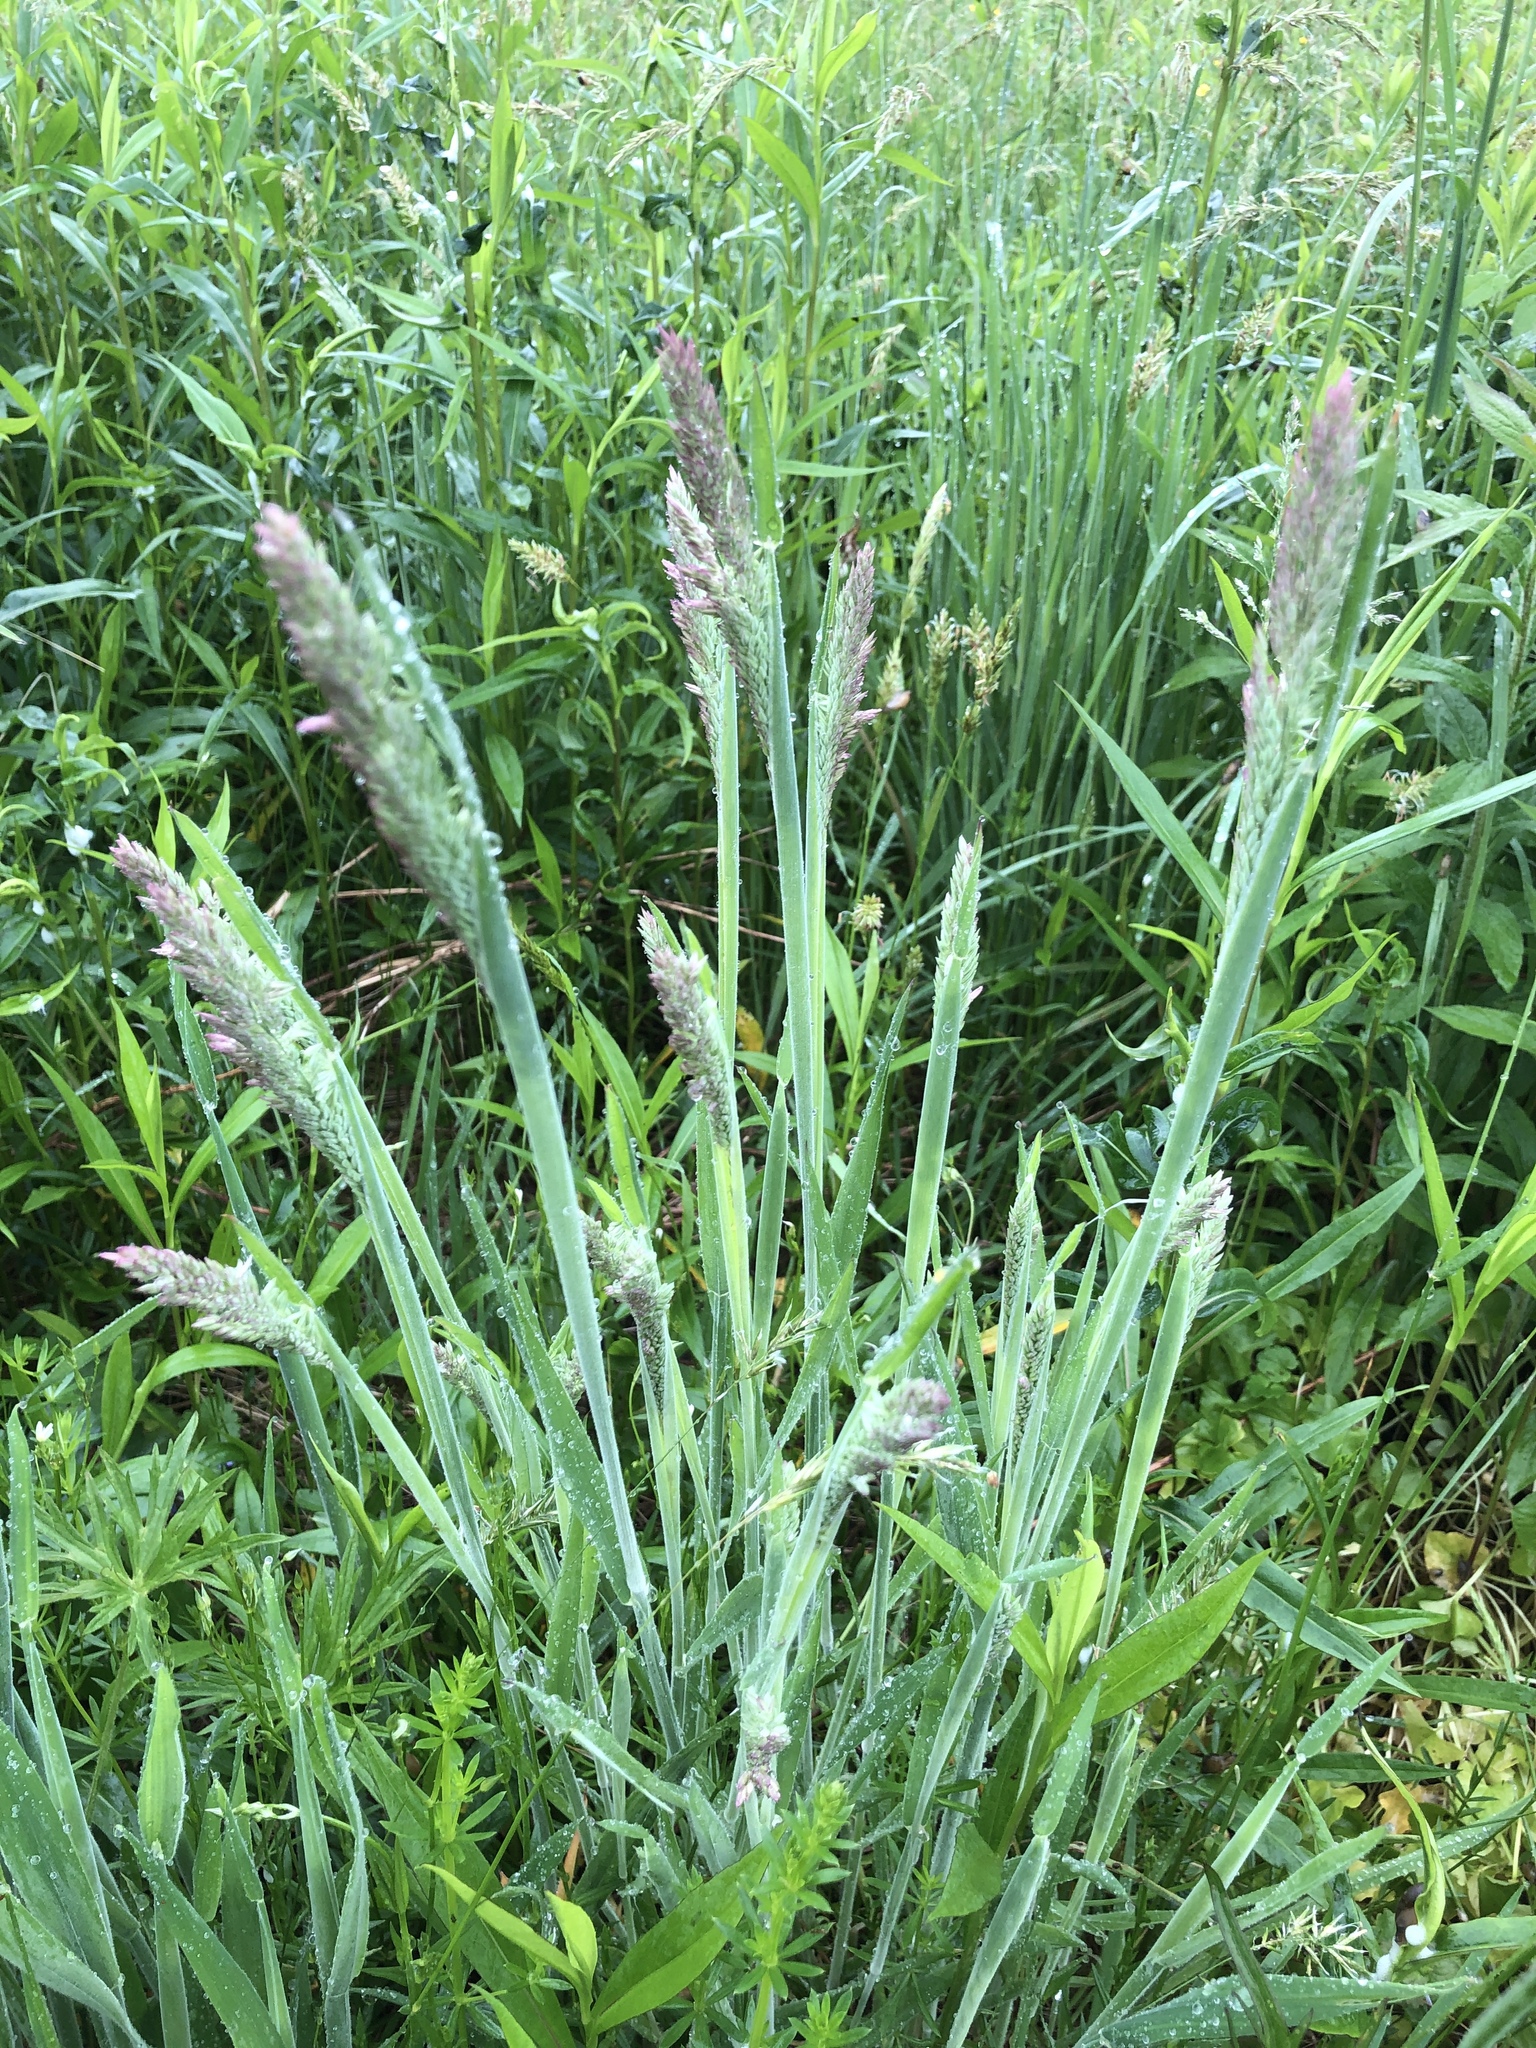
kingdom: Plantae
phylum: Tracheophyta
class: Liliopsida
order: Poales
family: Poaceae
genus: Holcus
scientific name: Holcus lanatus
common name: Yorkshire-fog
